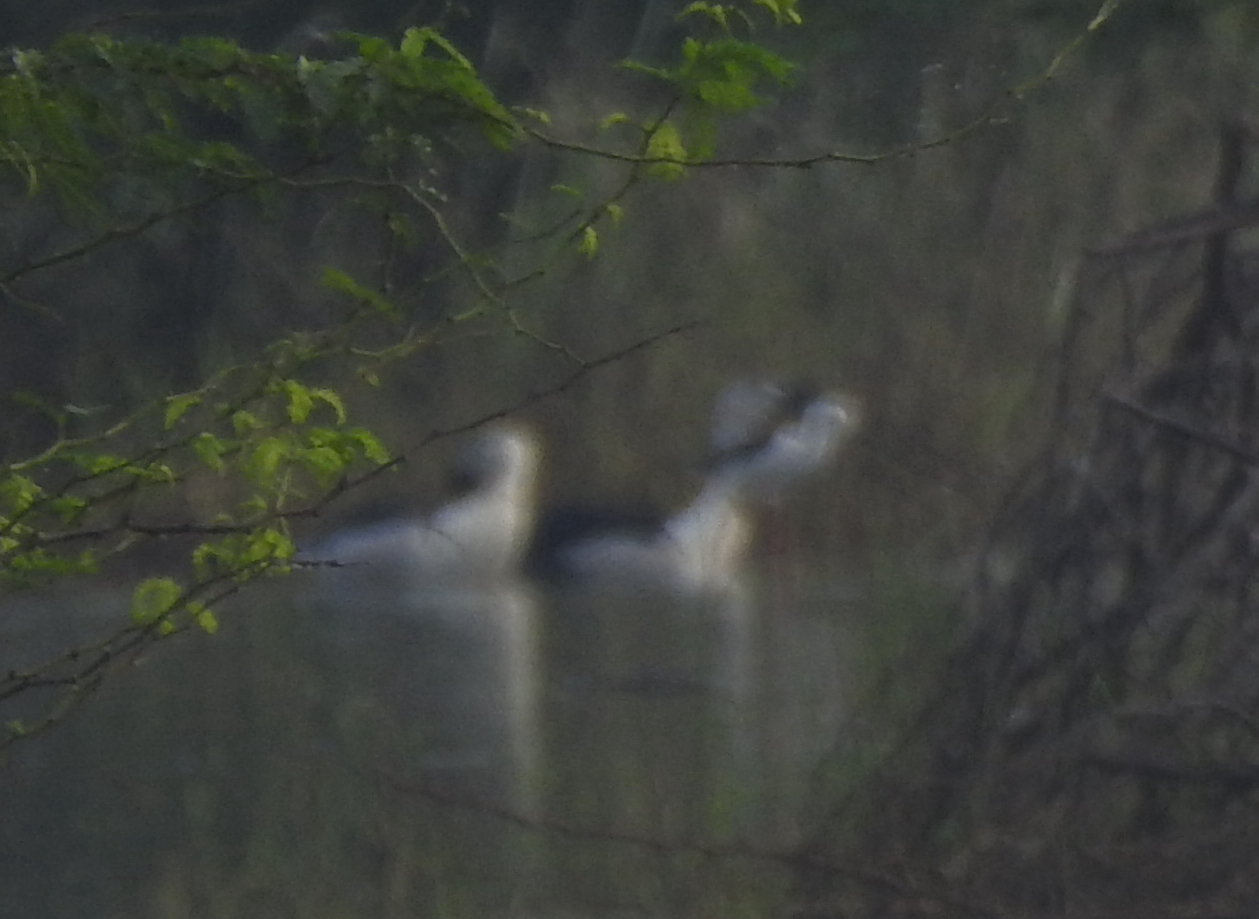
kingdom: Animalia
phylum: Chordata
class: Aves
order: Charadriiformes
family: Recurvirostridae
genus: Himantopus
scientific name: Himantopus himantopus
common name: Black-winged stilt
